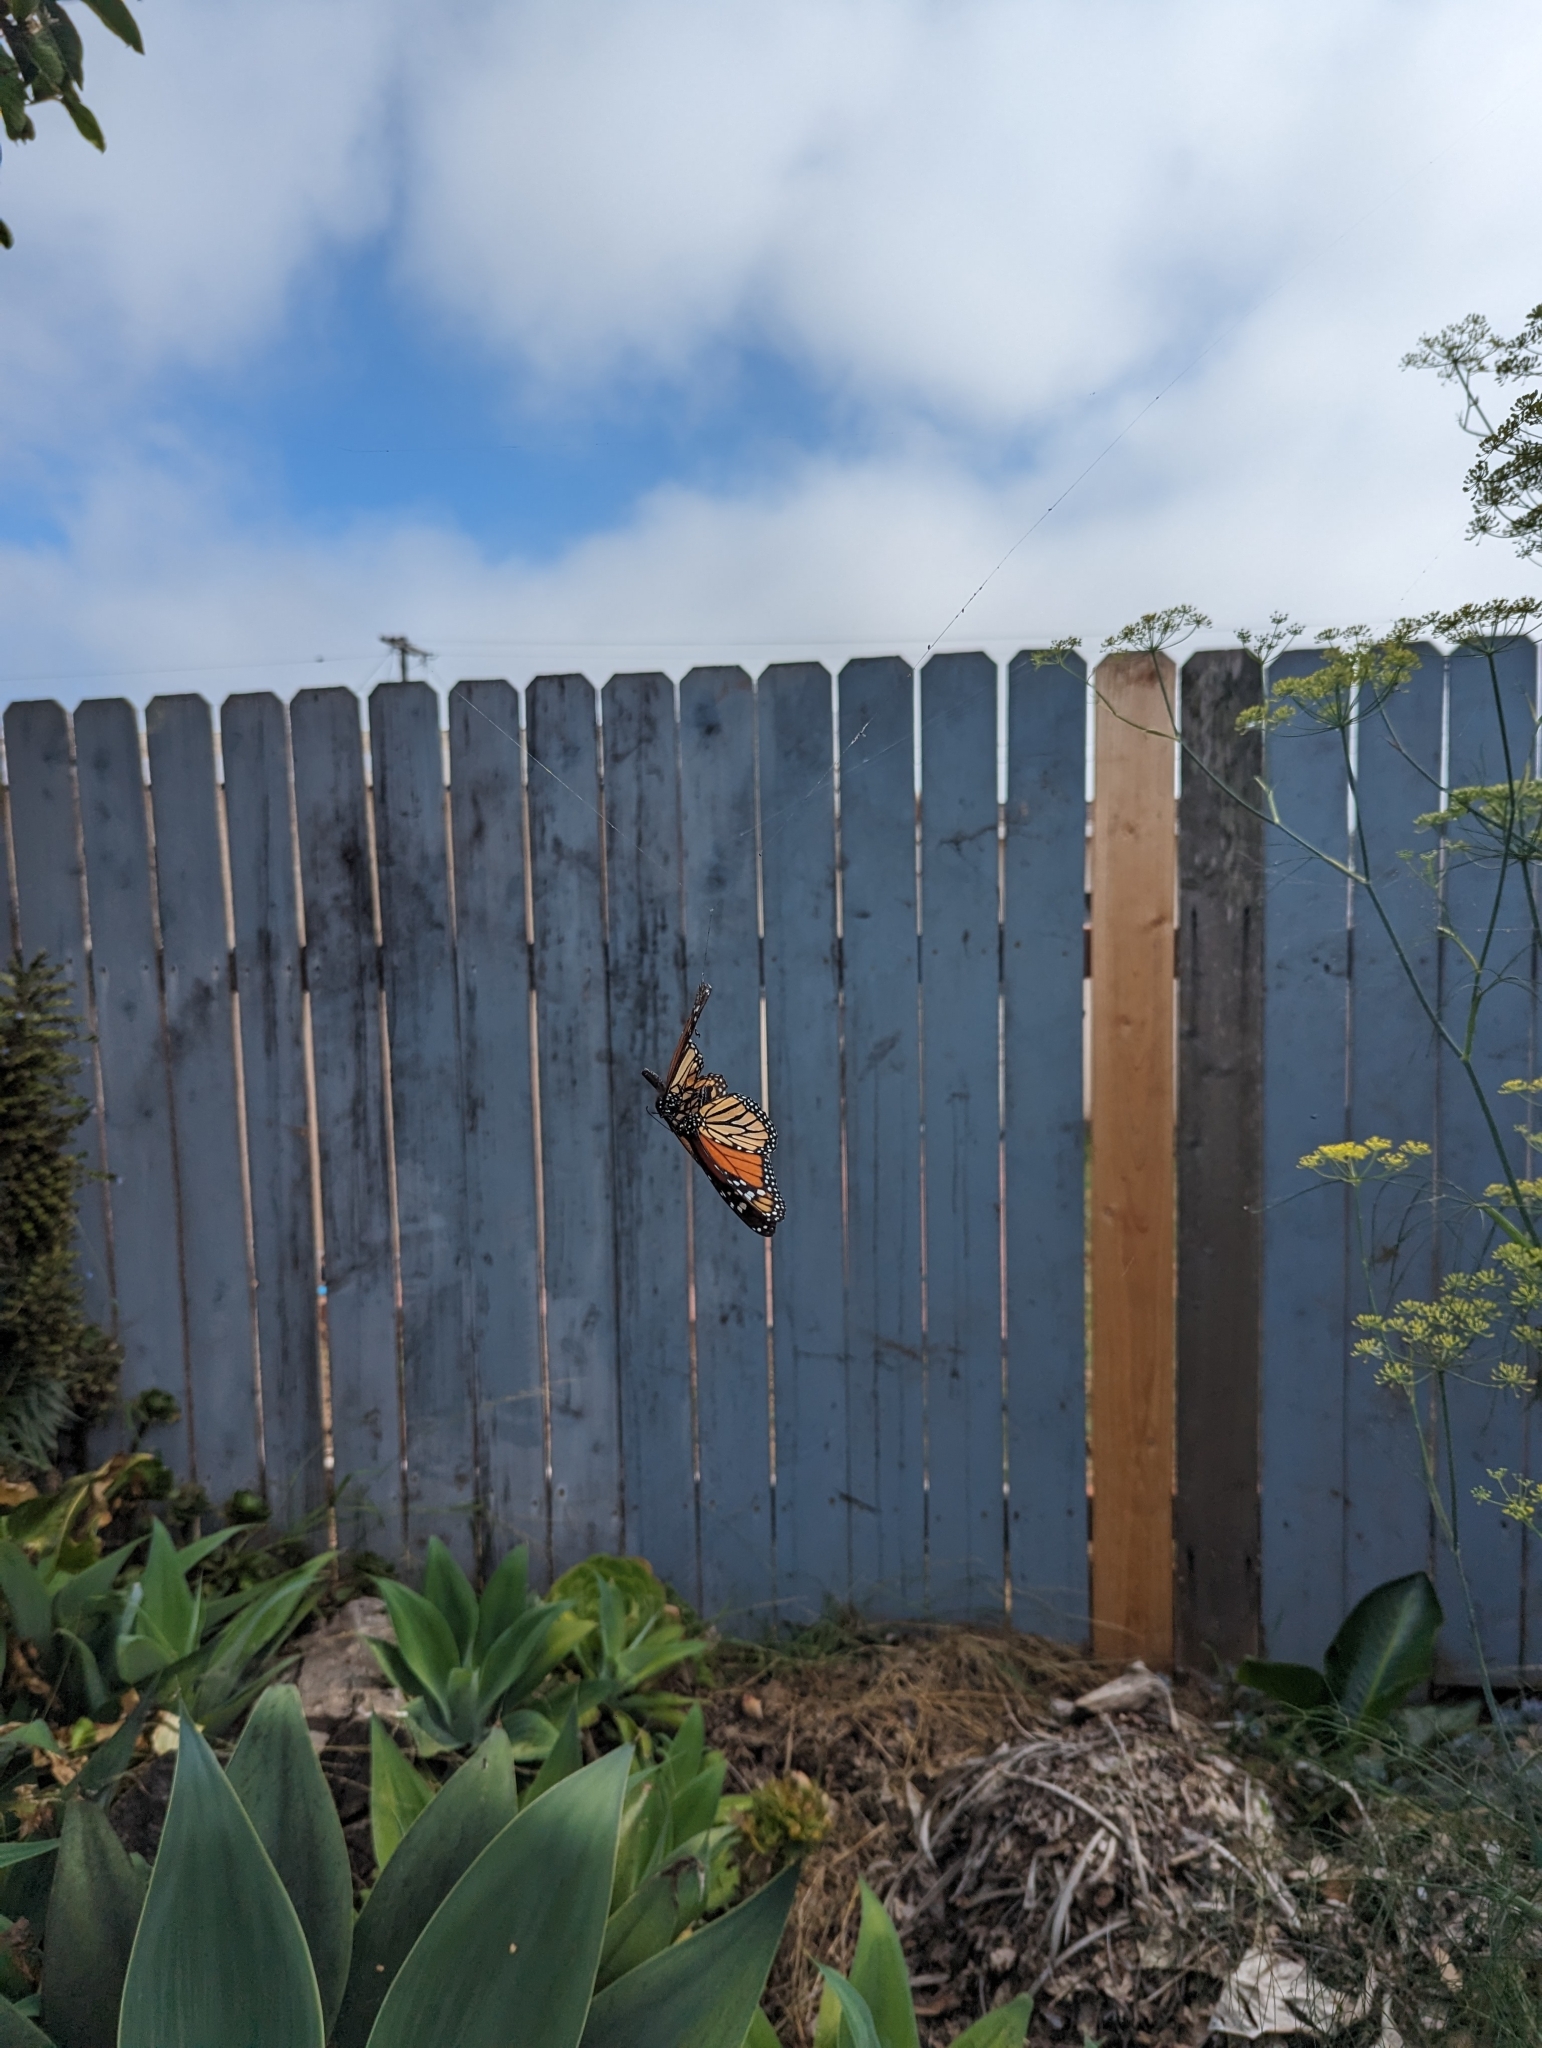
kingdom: Animalia
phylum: Arthropoda
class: Insecta
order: Lepidoptera
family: Nymphalidae
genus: Danaus
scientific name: Danaus plexippus
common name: Monarch
